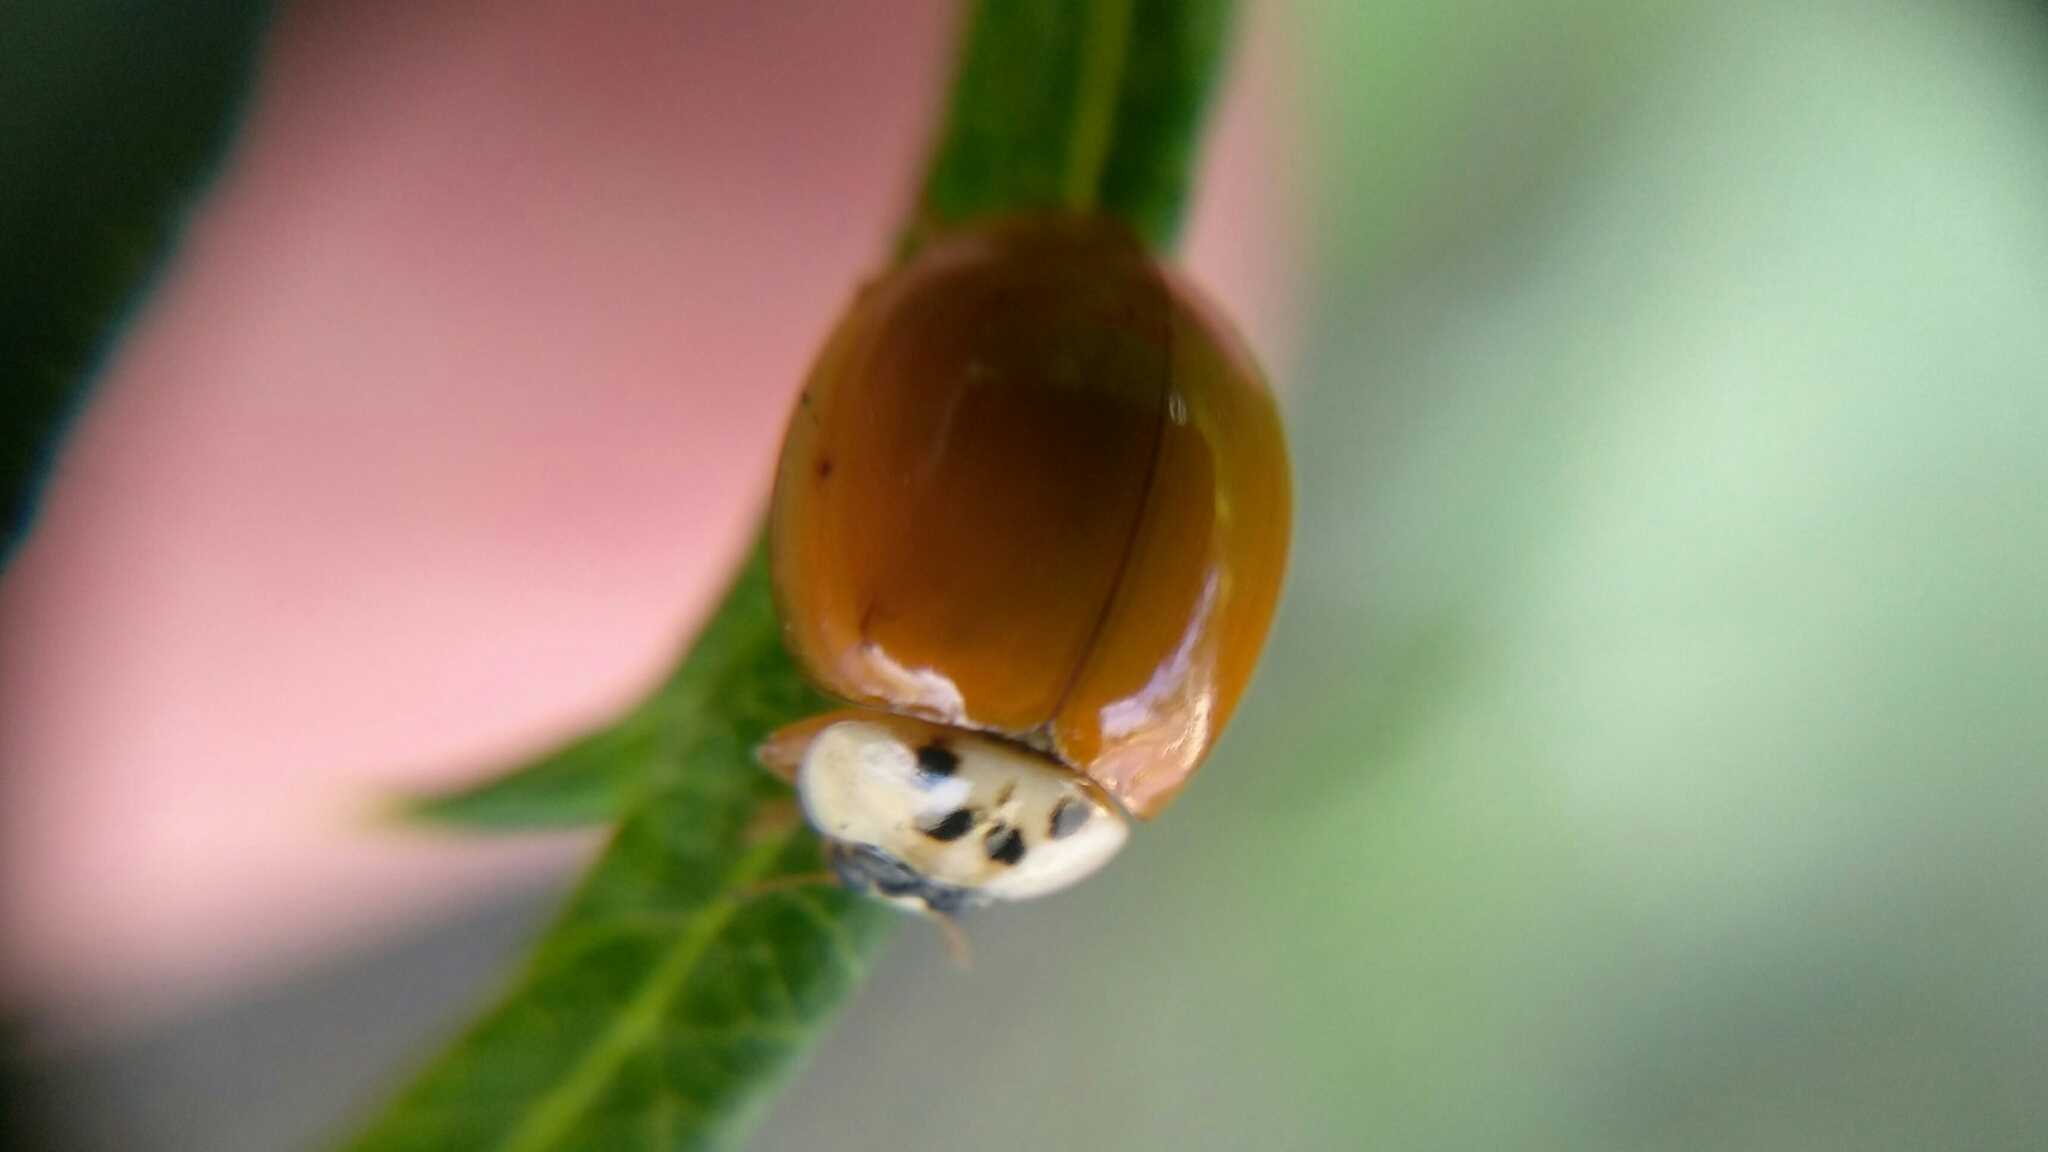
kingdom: Animalia
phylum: Arthropoda
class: Insecta
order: Coleoptera
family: Coccinellidae
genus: Harmonia
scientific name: Harmonia axyridis
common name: Harlequin ladybird
